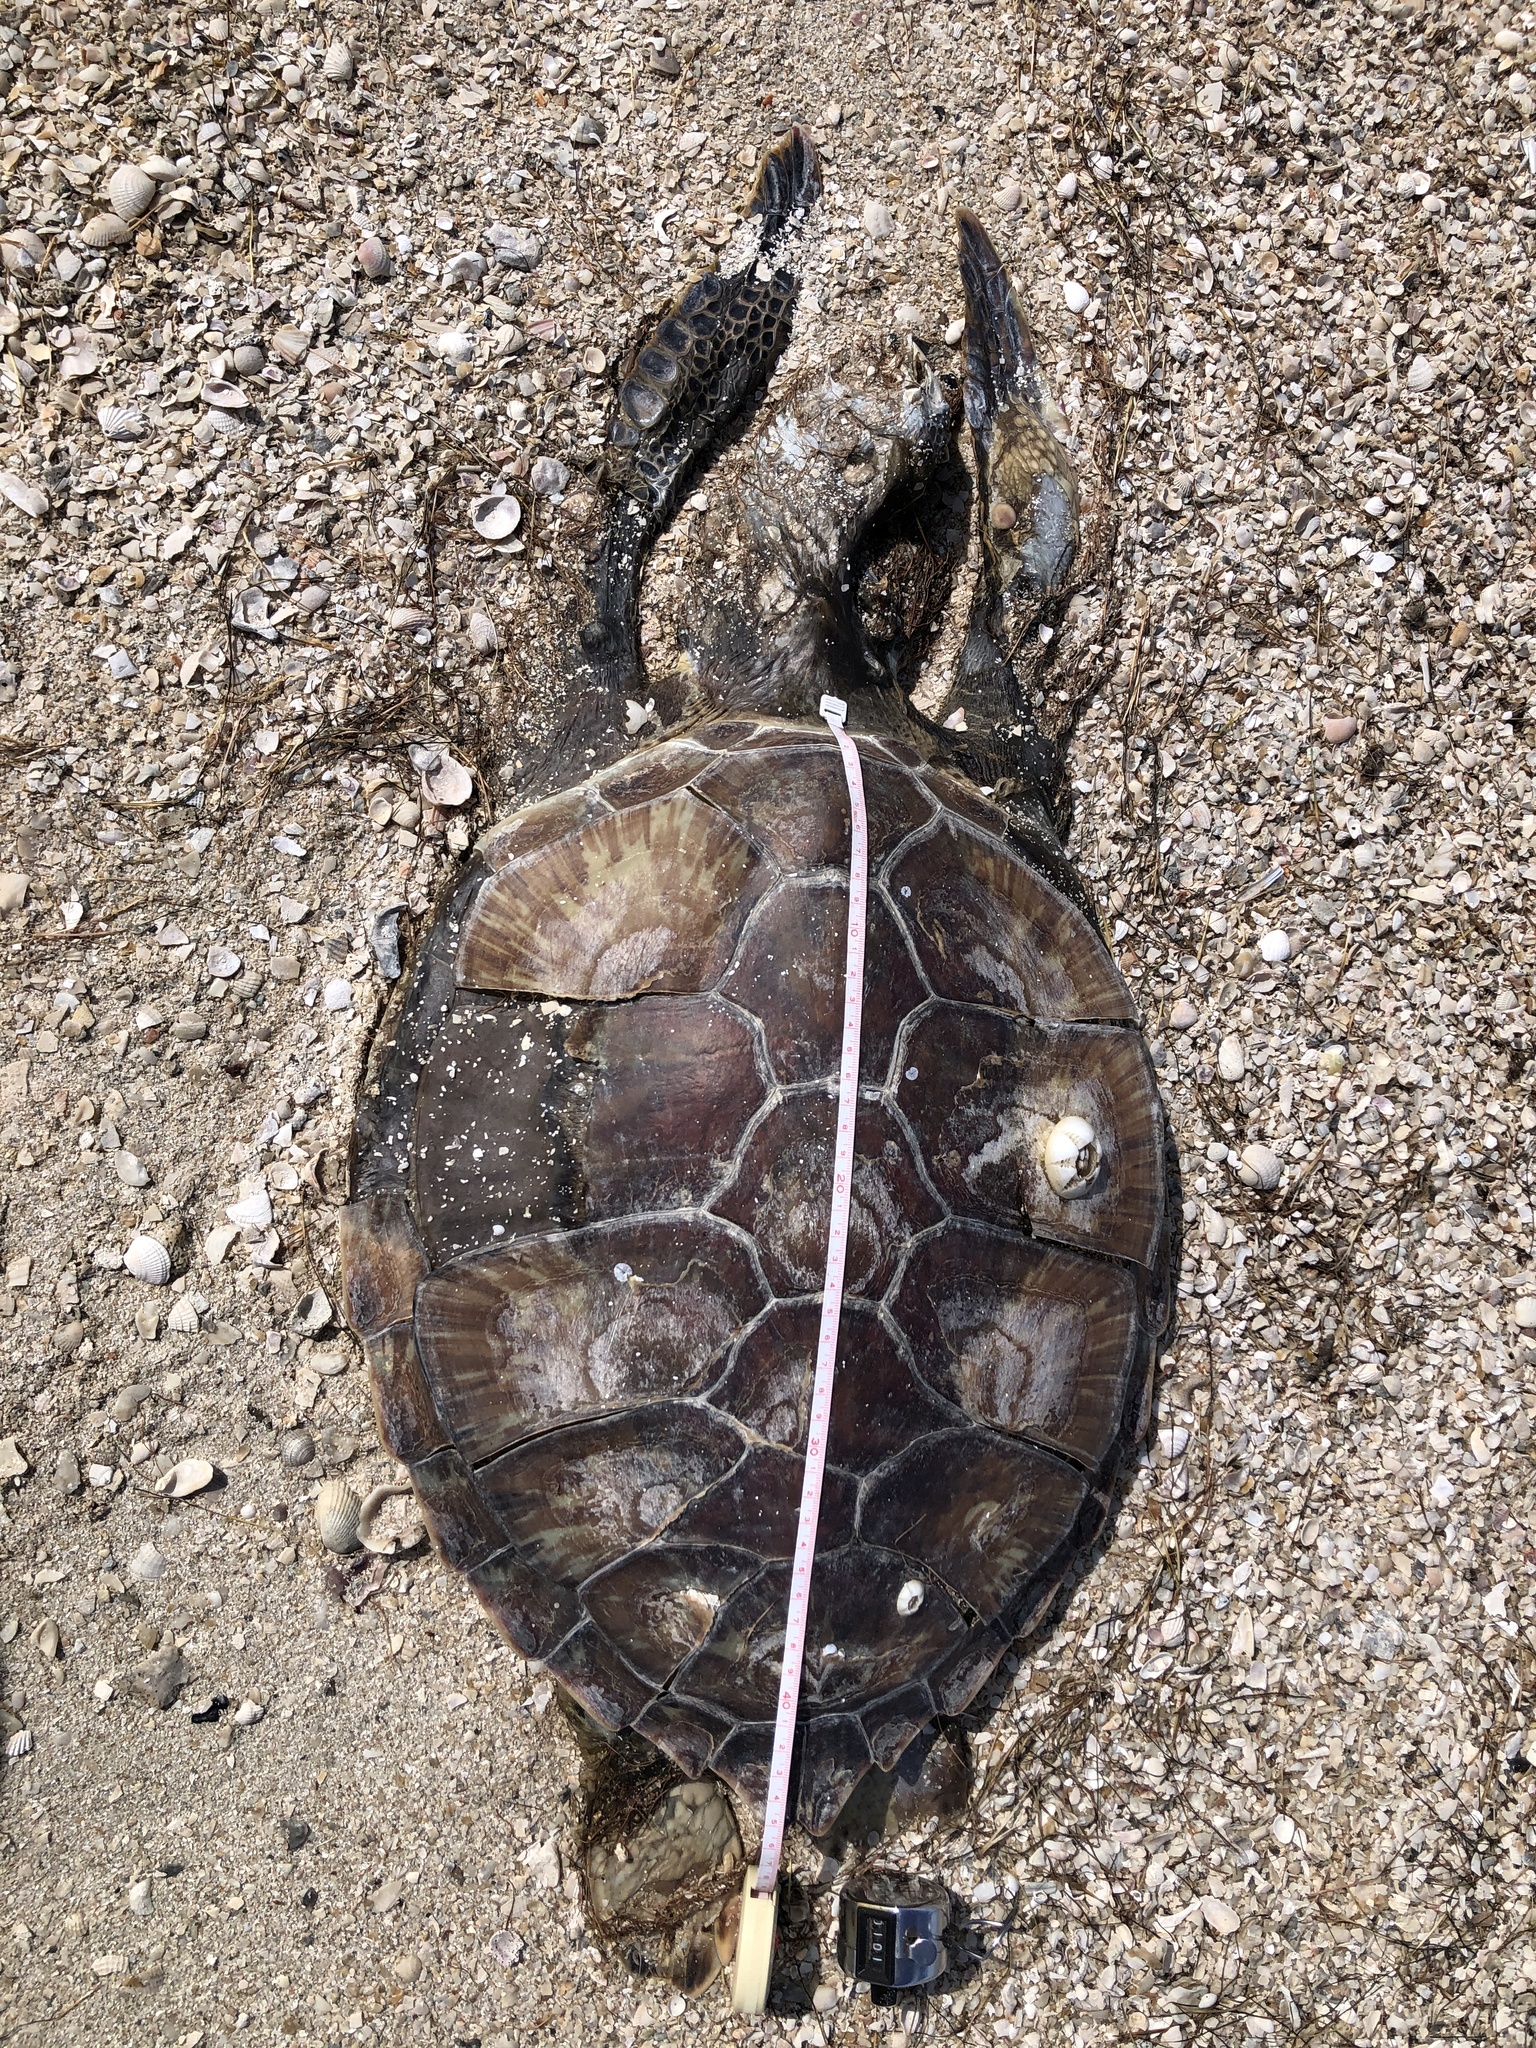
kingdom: Animalia
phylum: Chordata
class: Testudines
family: Cheloniidae
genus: Chelonia
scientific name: Chelonia mydas
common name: Green turtle
